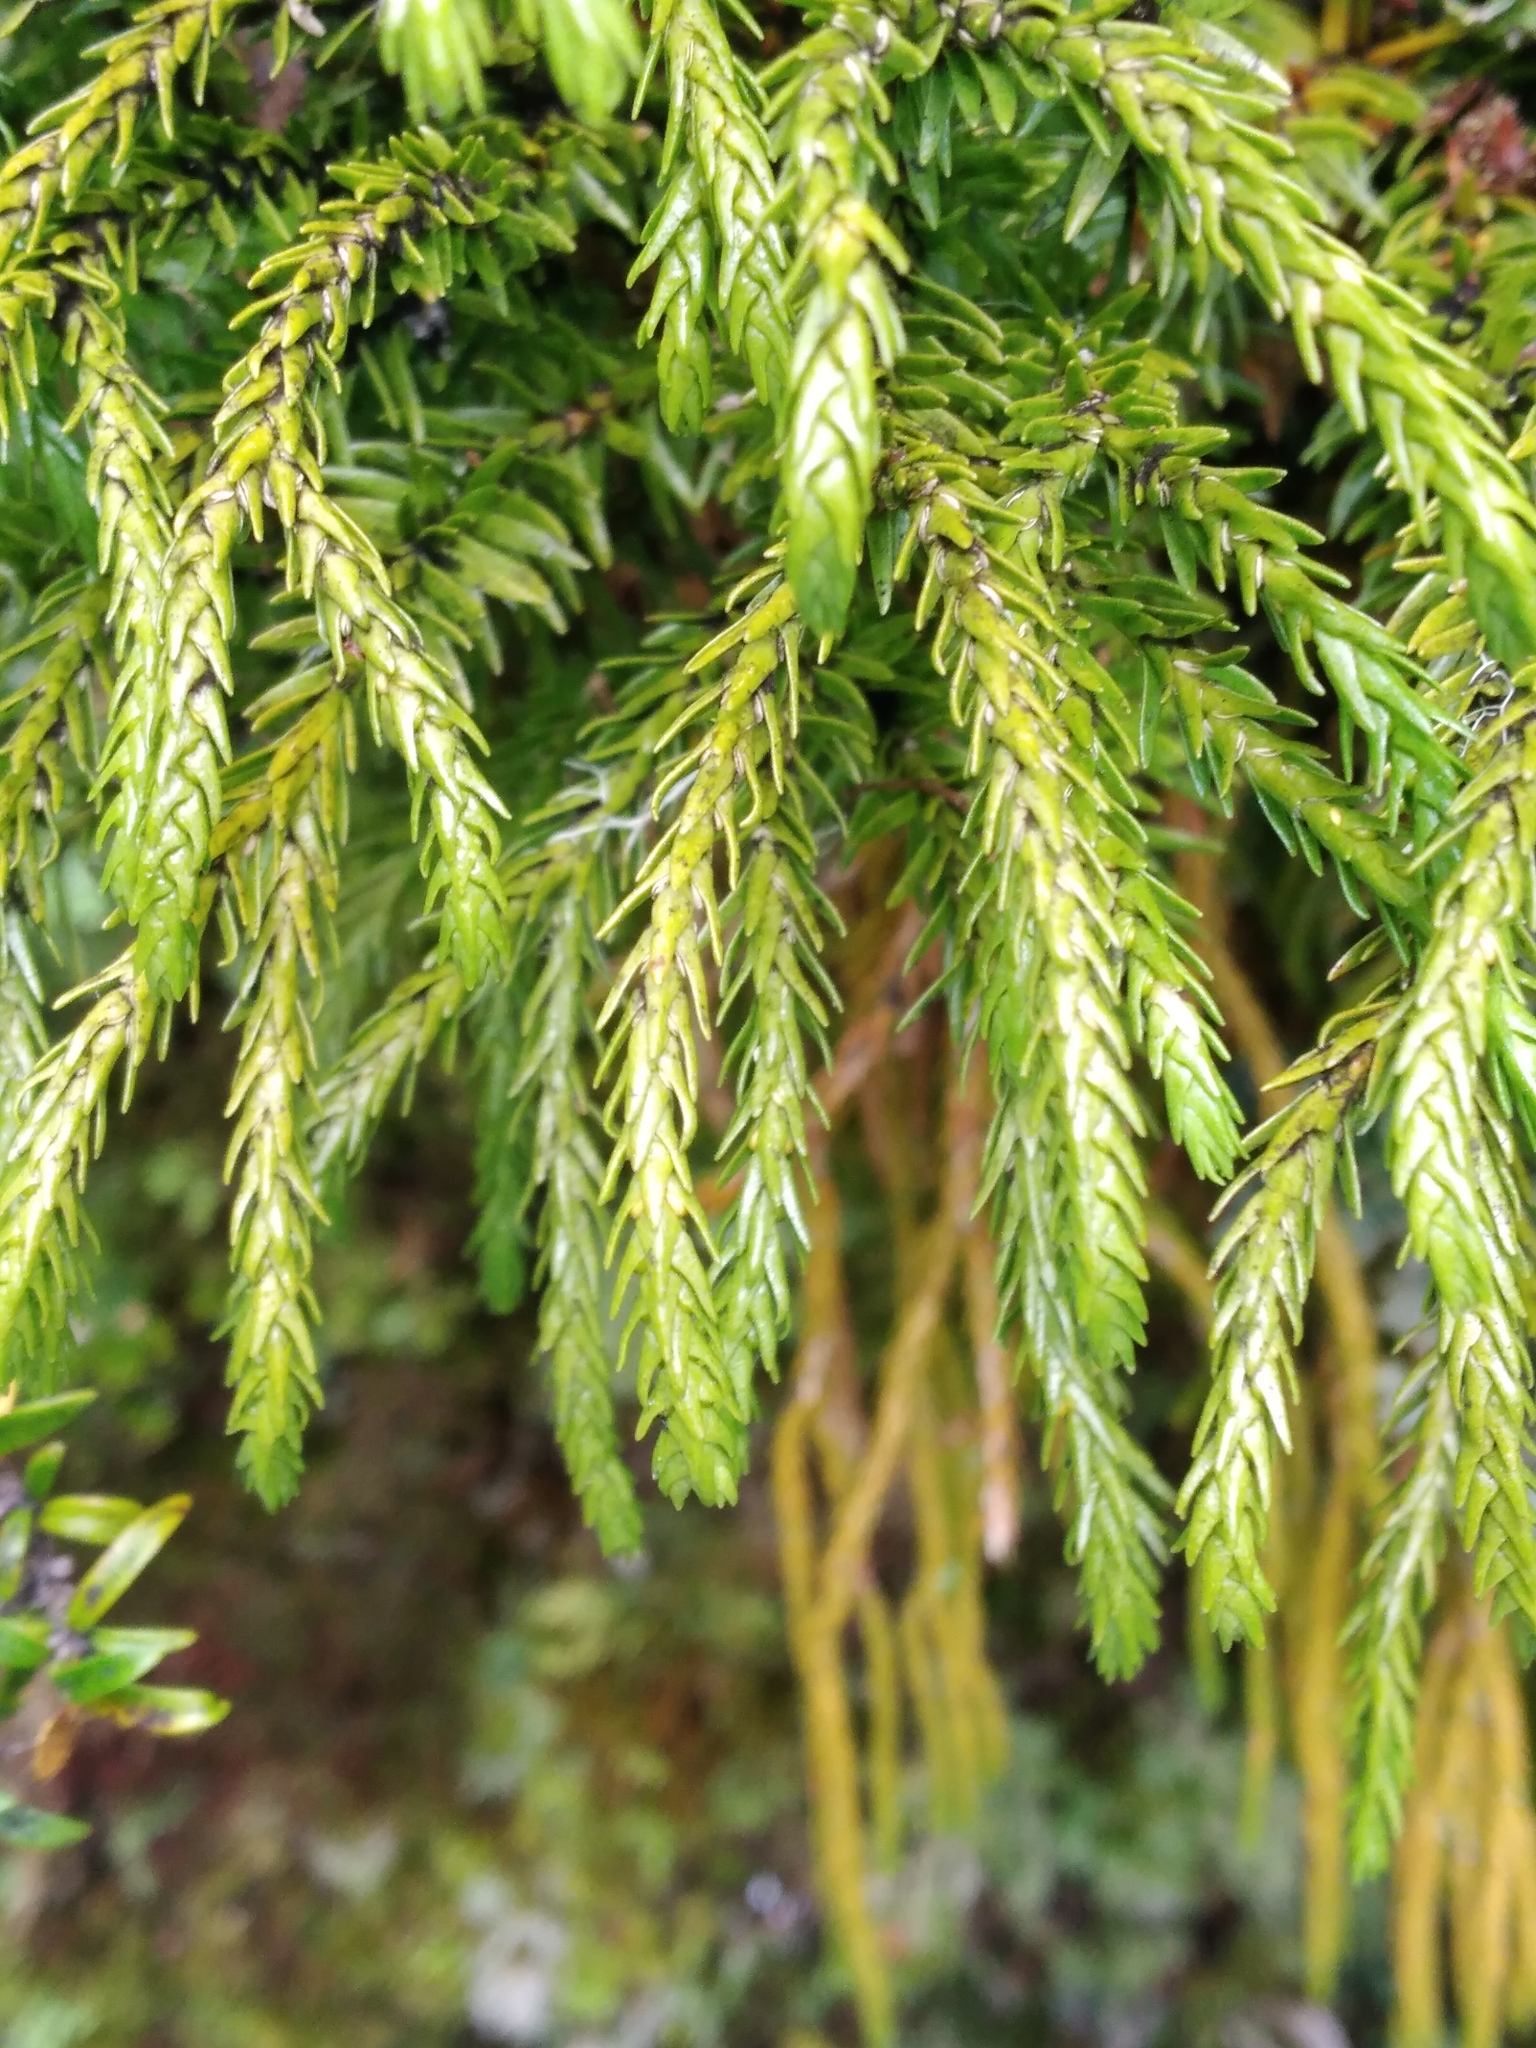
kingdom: Plantae
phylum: Tracheophyta
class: Lycopodiopsida
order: Lycopodiales
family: Lycopodiaceae
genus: Phlegmariurus
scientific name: Phlegmariurus varius
